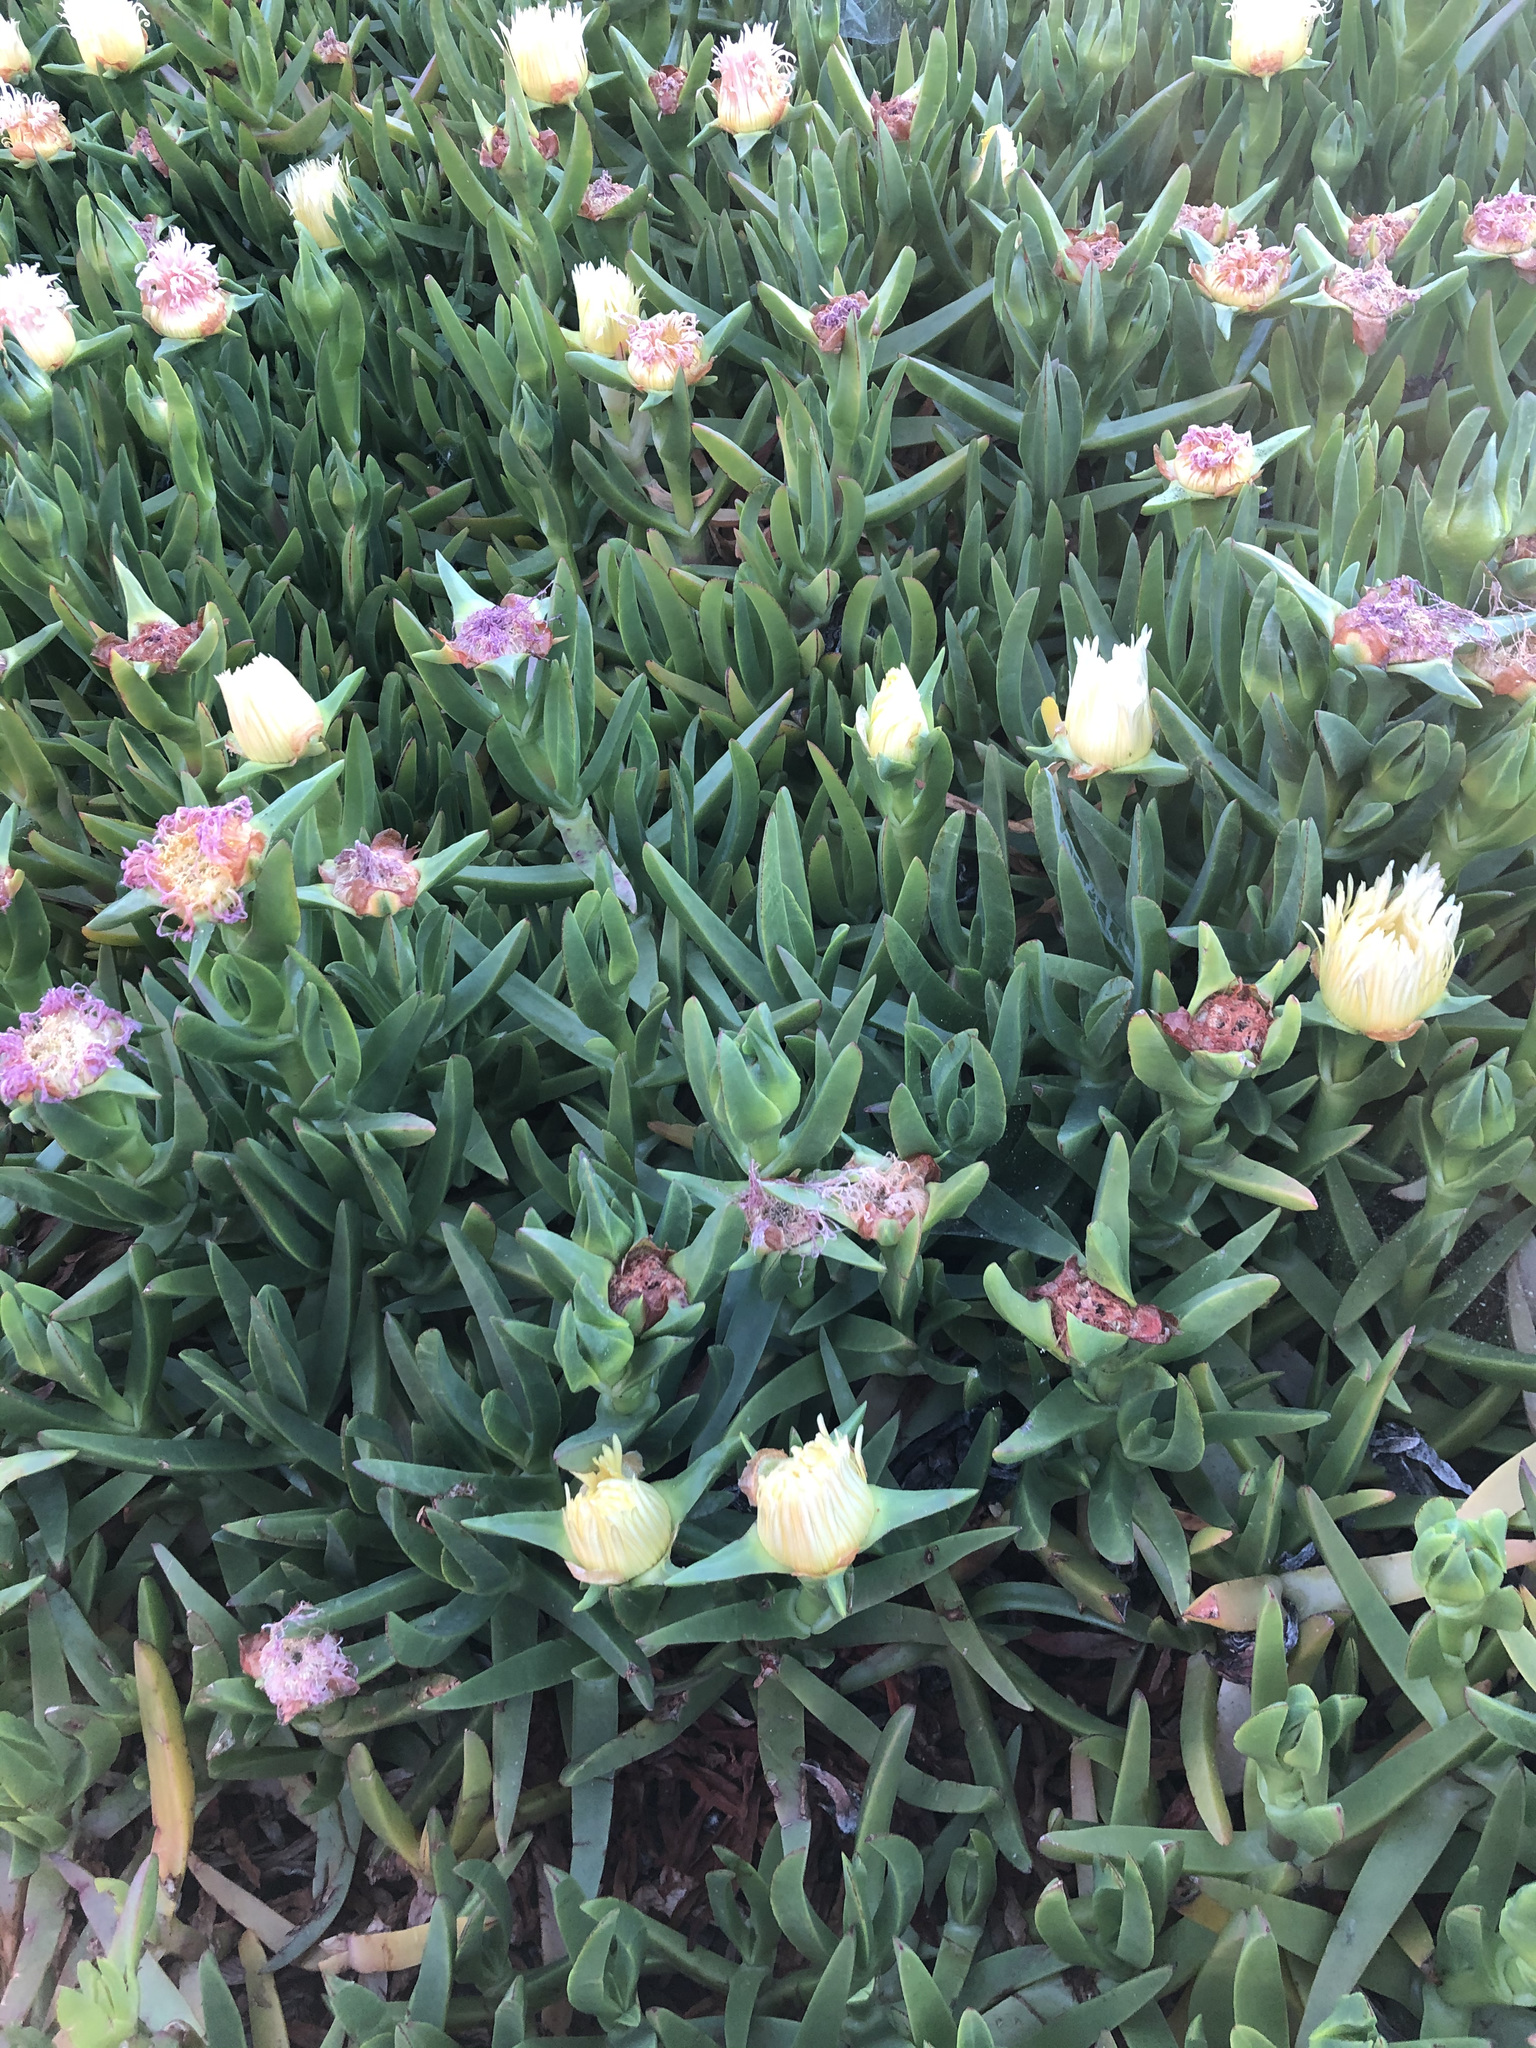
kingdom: Plantae
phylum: Tracheophyta
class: Magnoliopsida
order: Caryophyllales
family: Aizoaceae
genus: Carpobrotus
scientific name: Carpobrotus edulis
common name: Hottentot-fig
